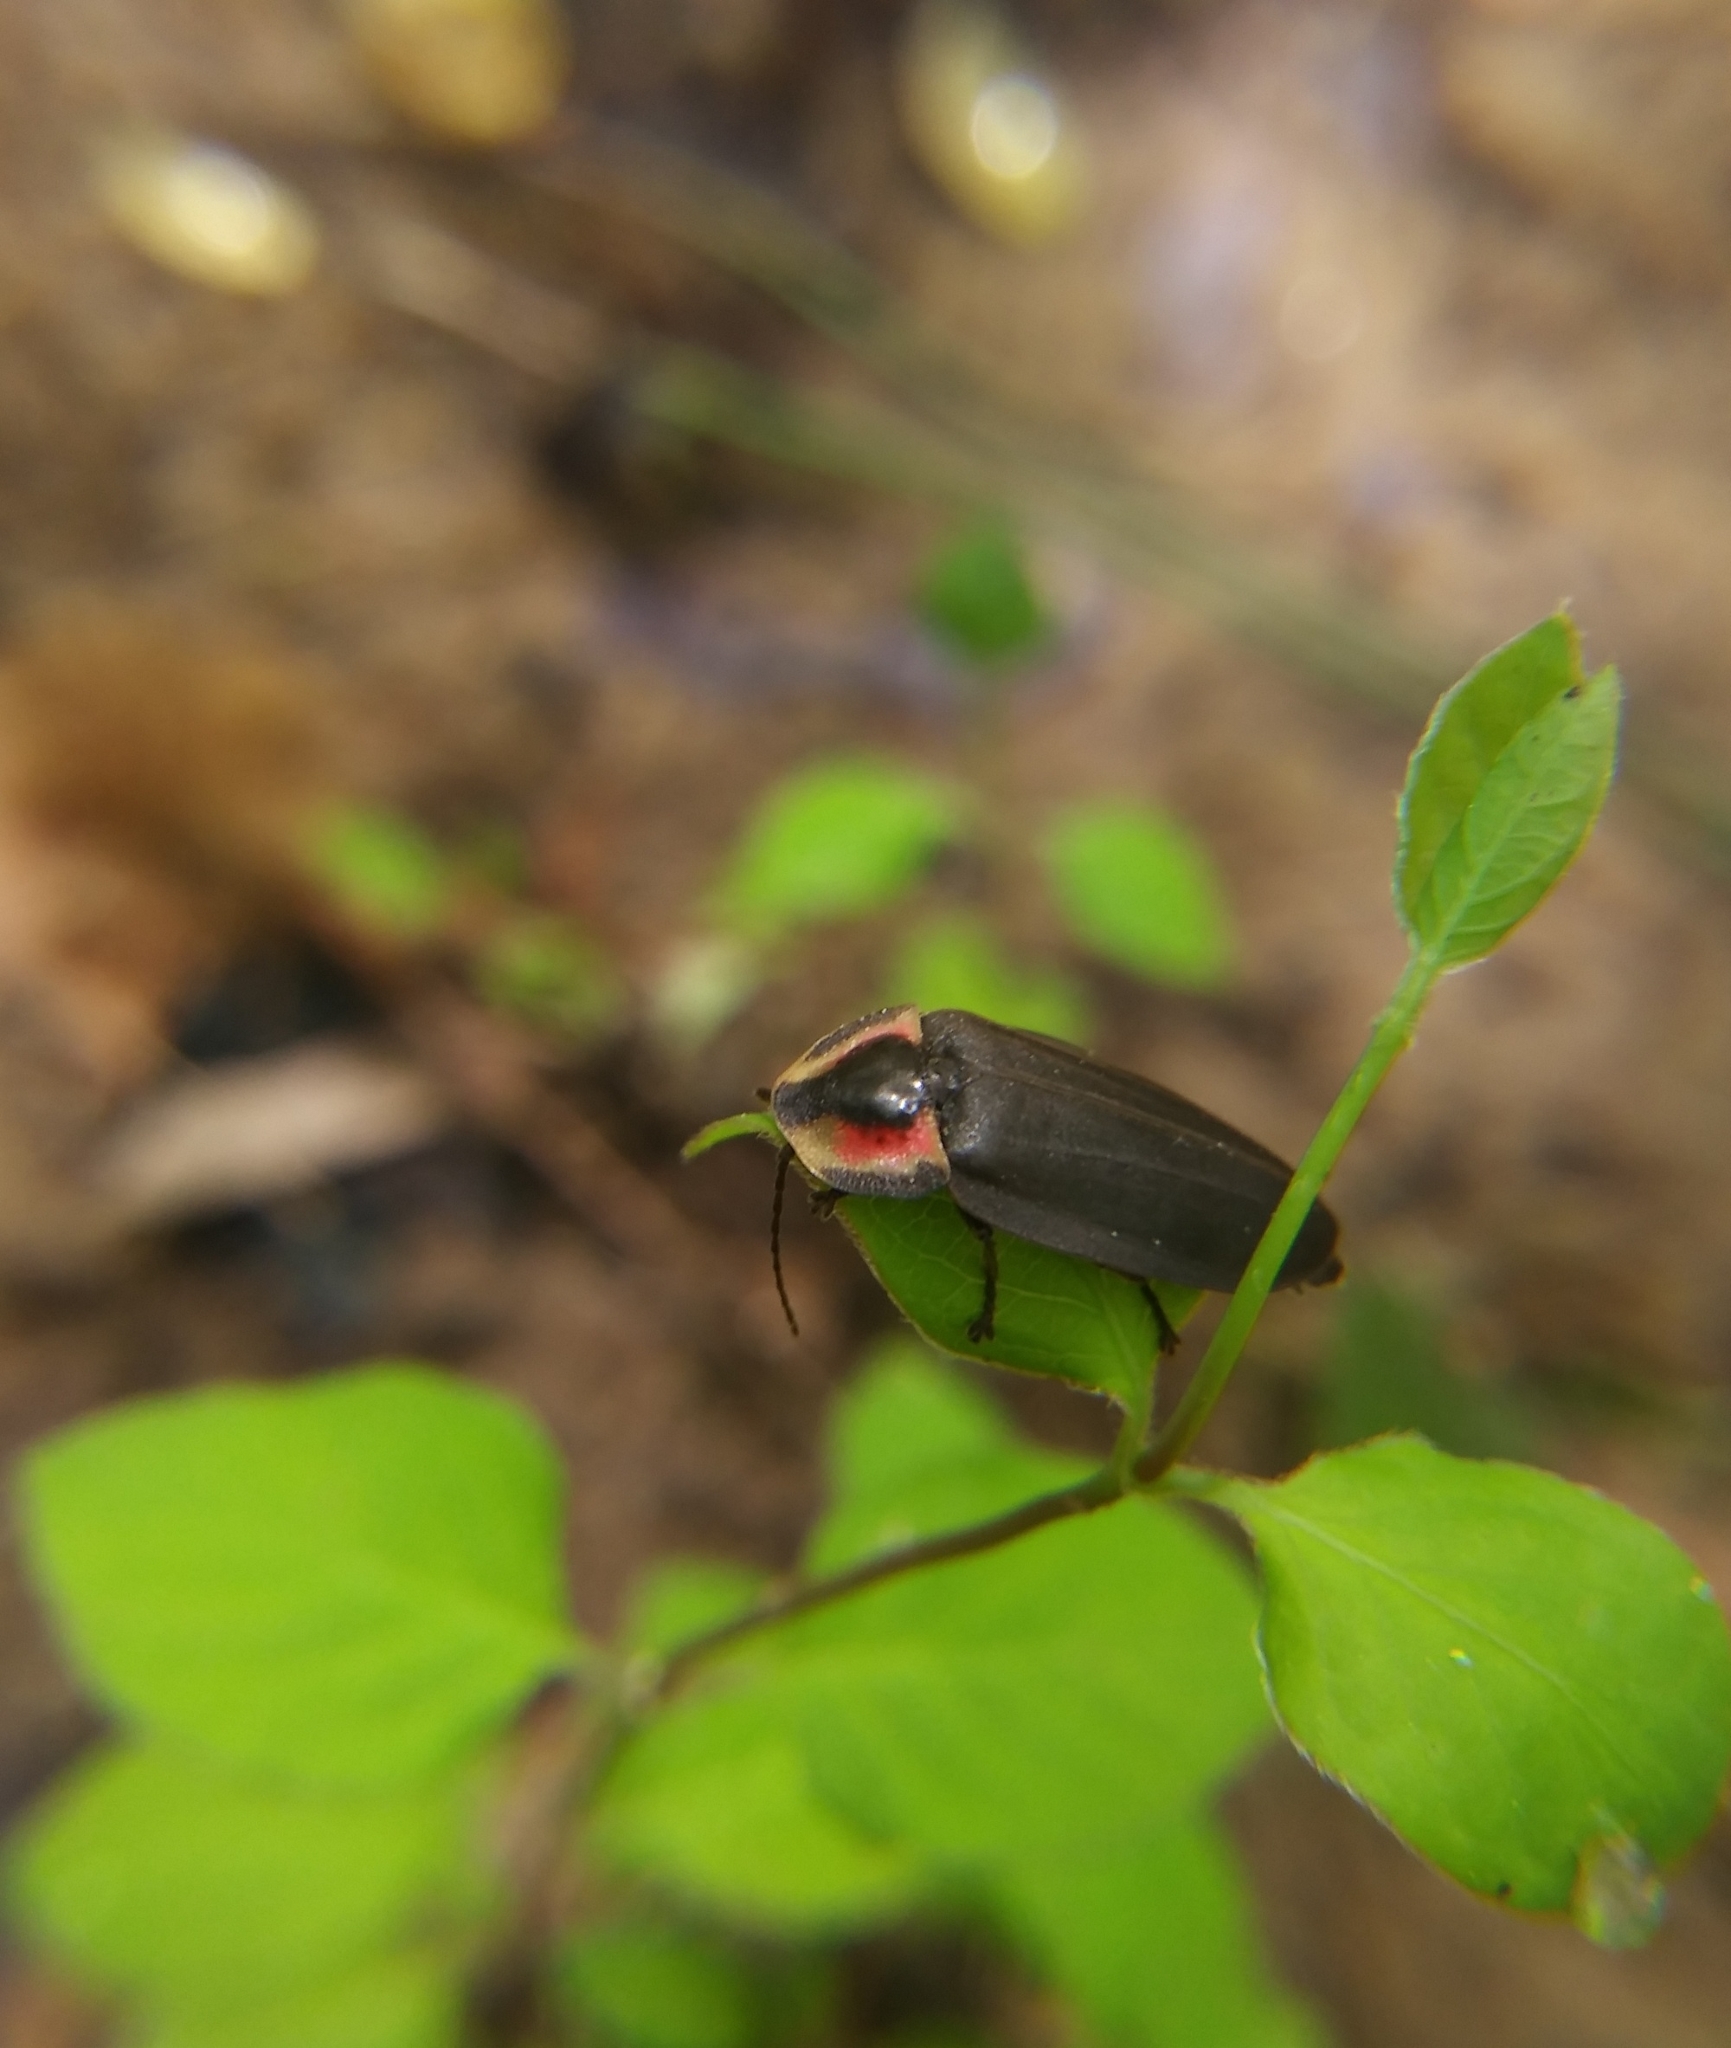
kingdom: Animalia
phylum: Arthropoda
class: Insecta
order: Coleoptera
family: Lampyridae
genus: Photinus
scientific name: Photinus corrusca
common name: Winter firefly
